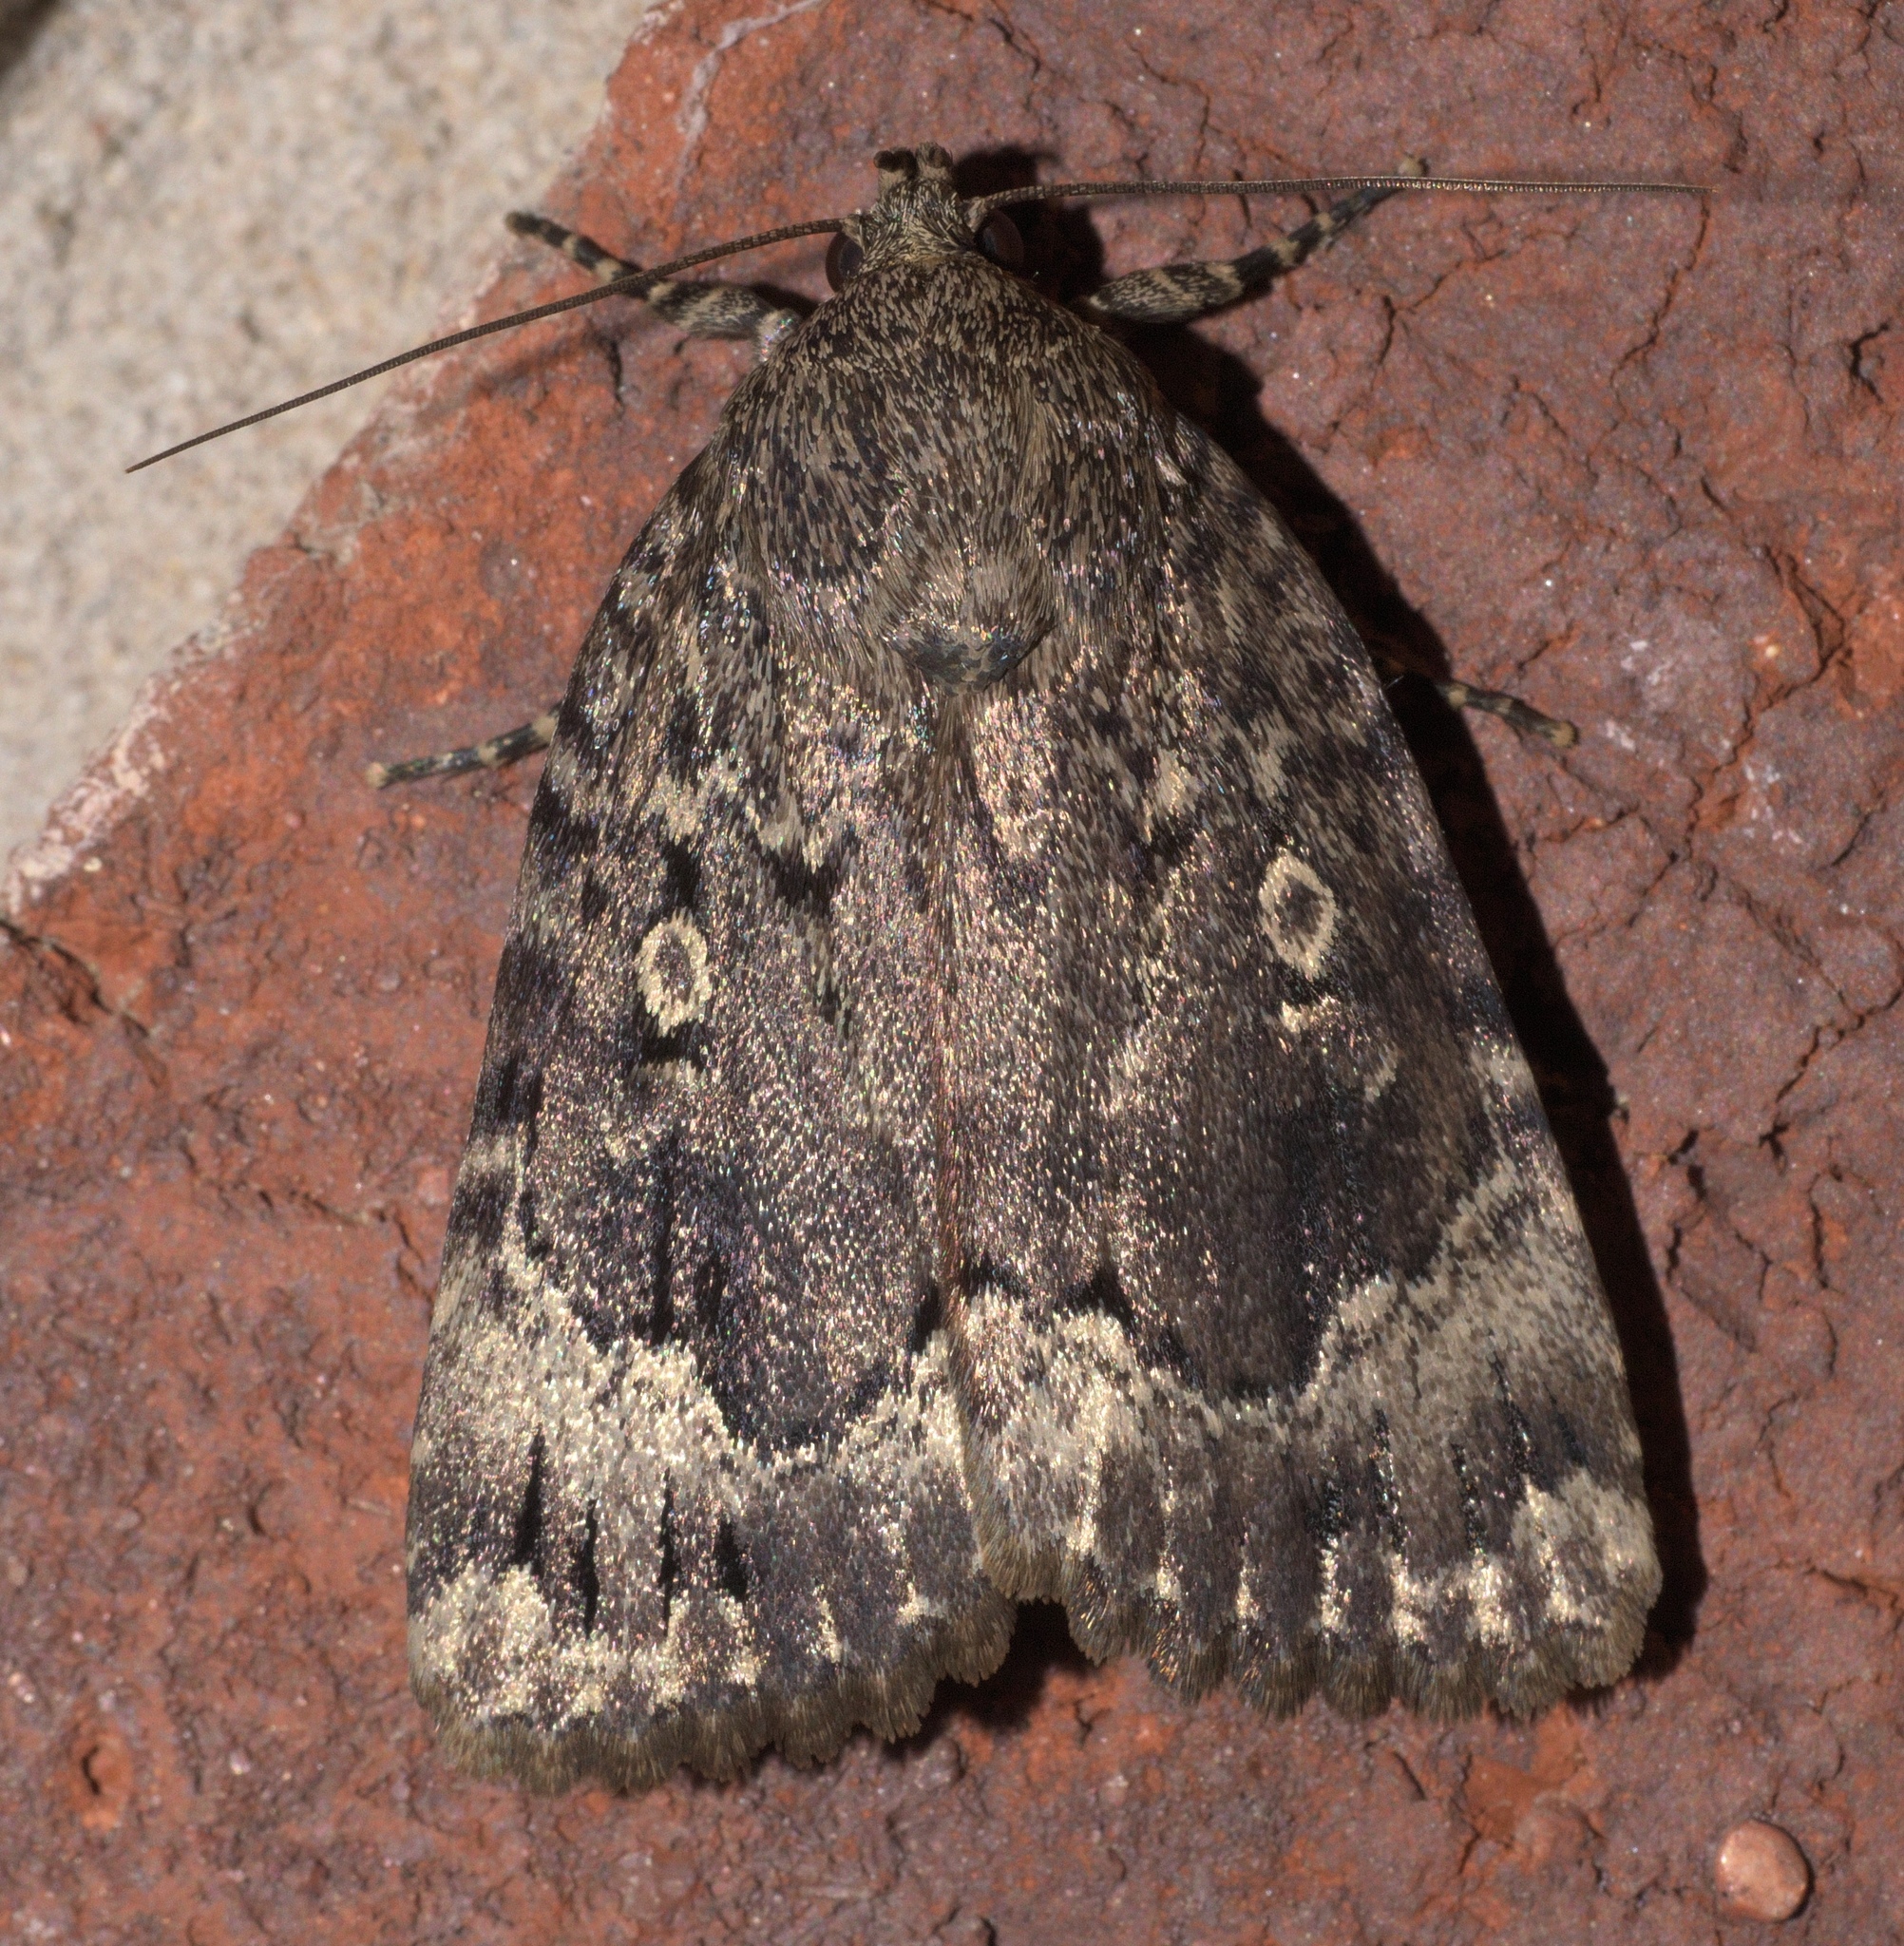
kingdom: Animalia
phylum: Arthropoda
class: Insecta
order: Lepidoptera
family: Noctuidae
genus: Amphipyra
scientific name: Amphipyra pyramidoides
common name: American copper underwing
